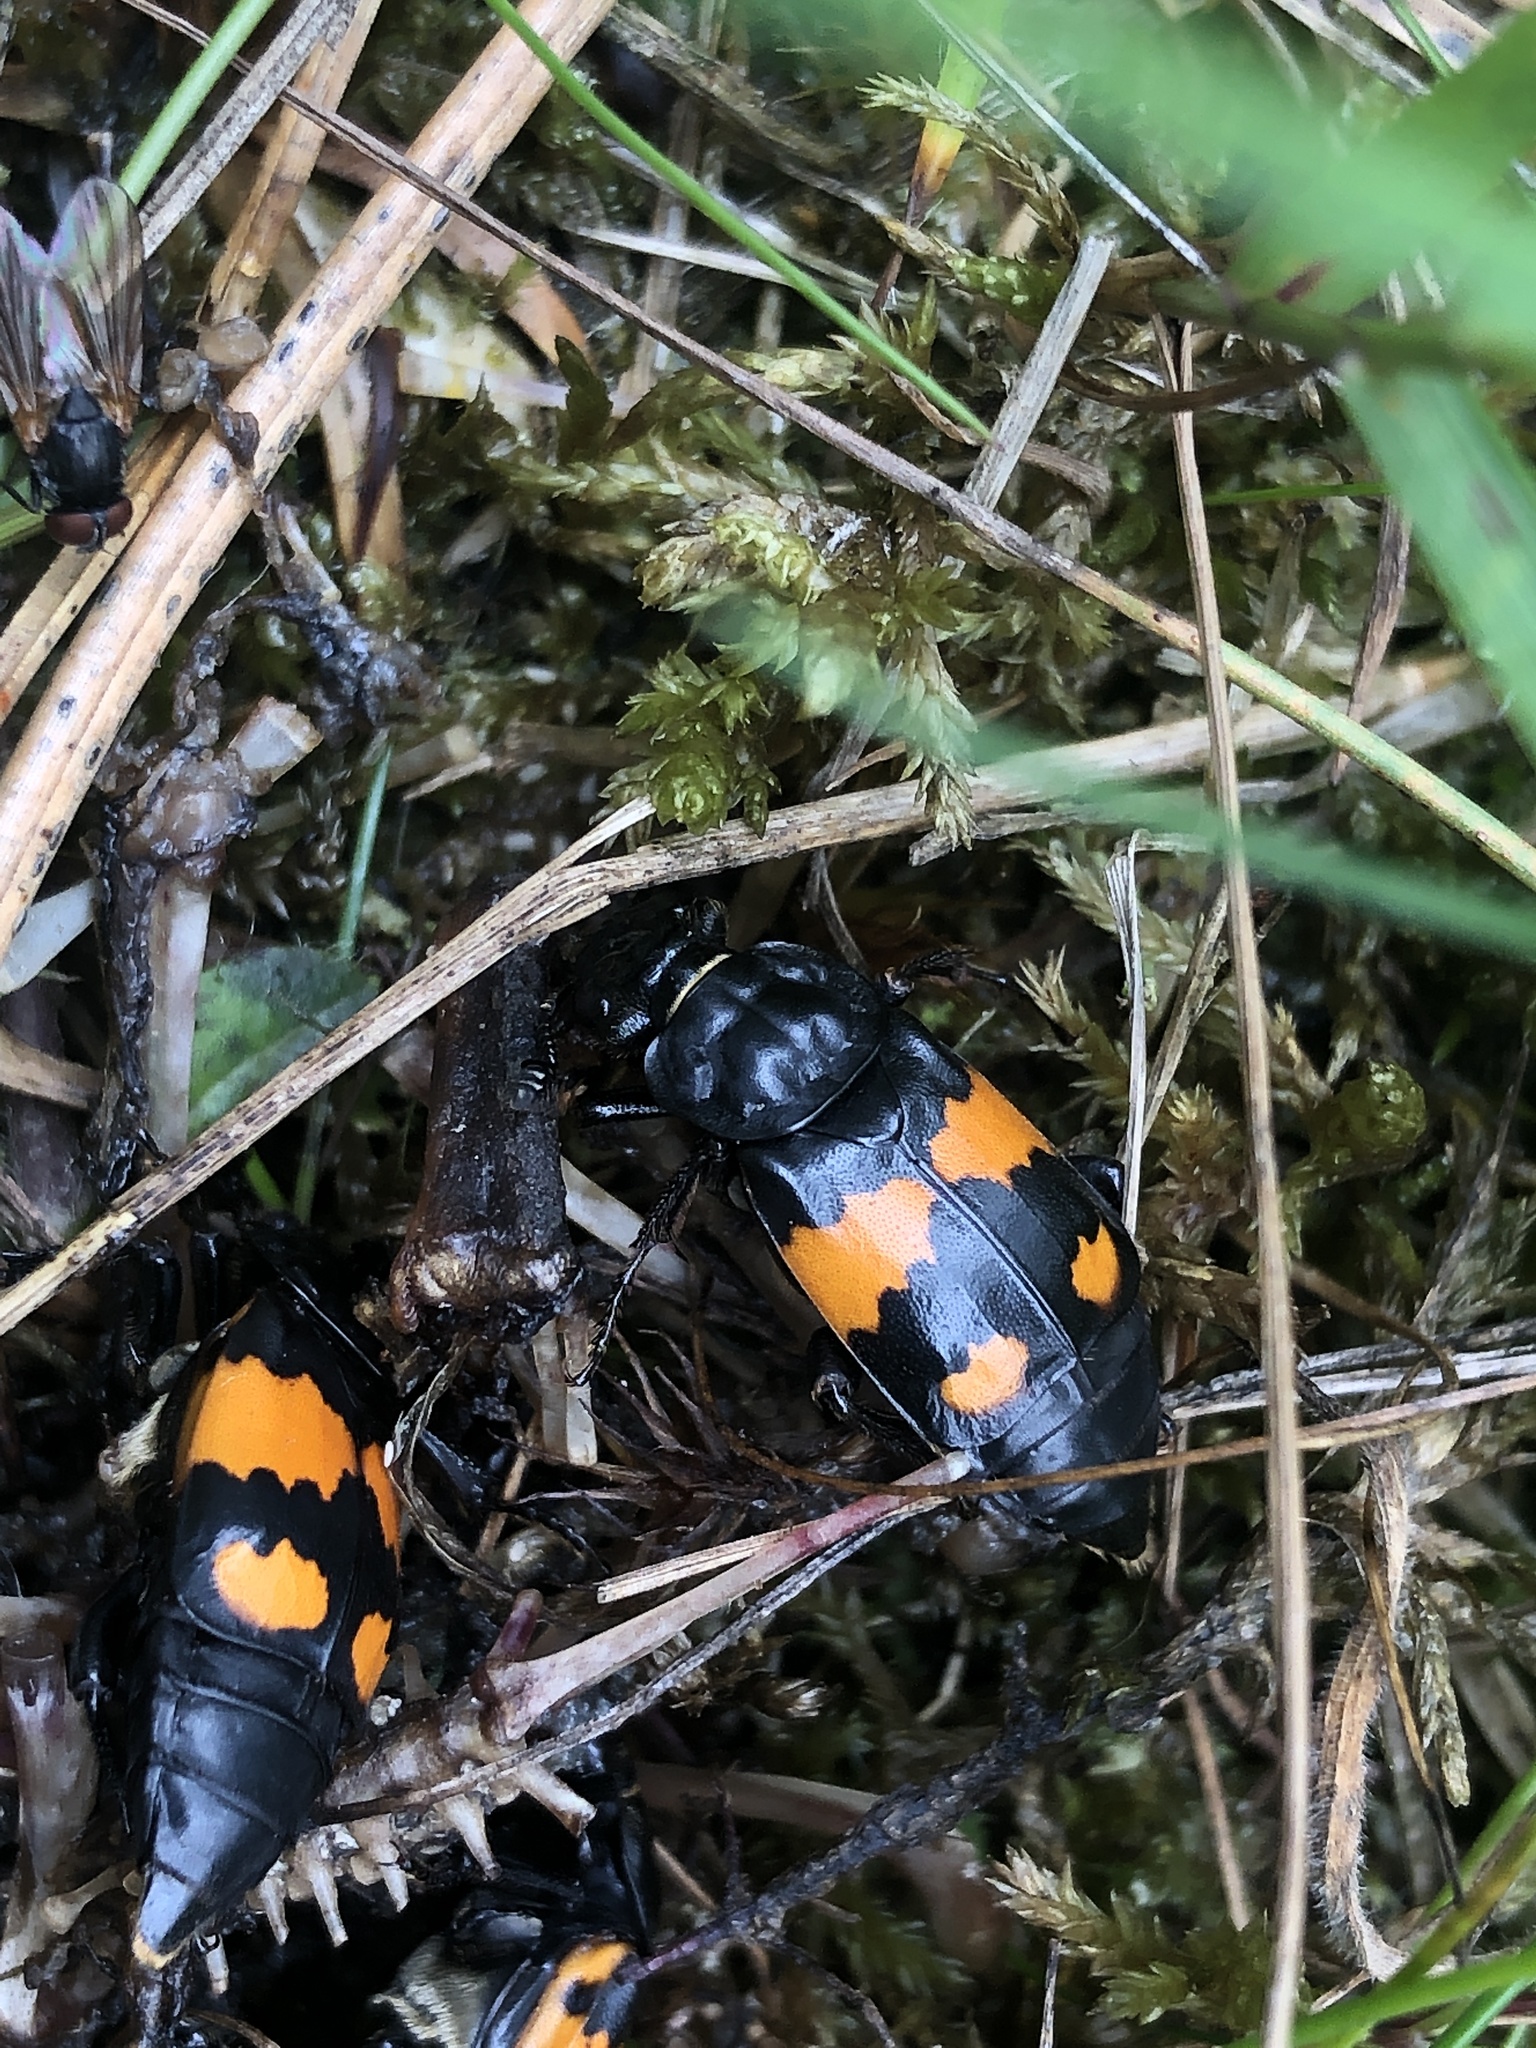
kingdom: Animalia
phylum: Arthropoda
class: Insecta
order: Coleoptera
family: Staphylinidae
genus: Nicrophorus
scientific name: Nicrophorus vespilloides
